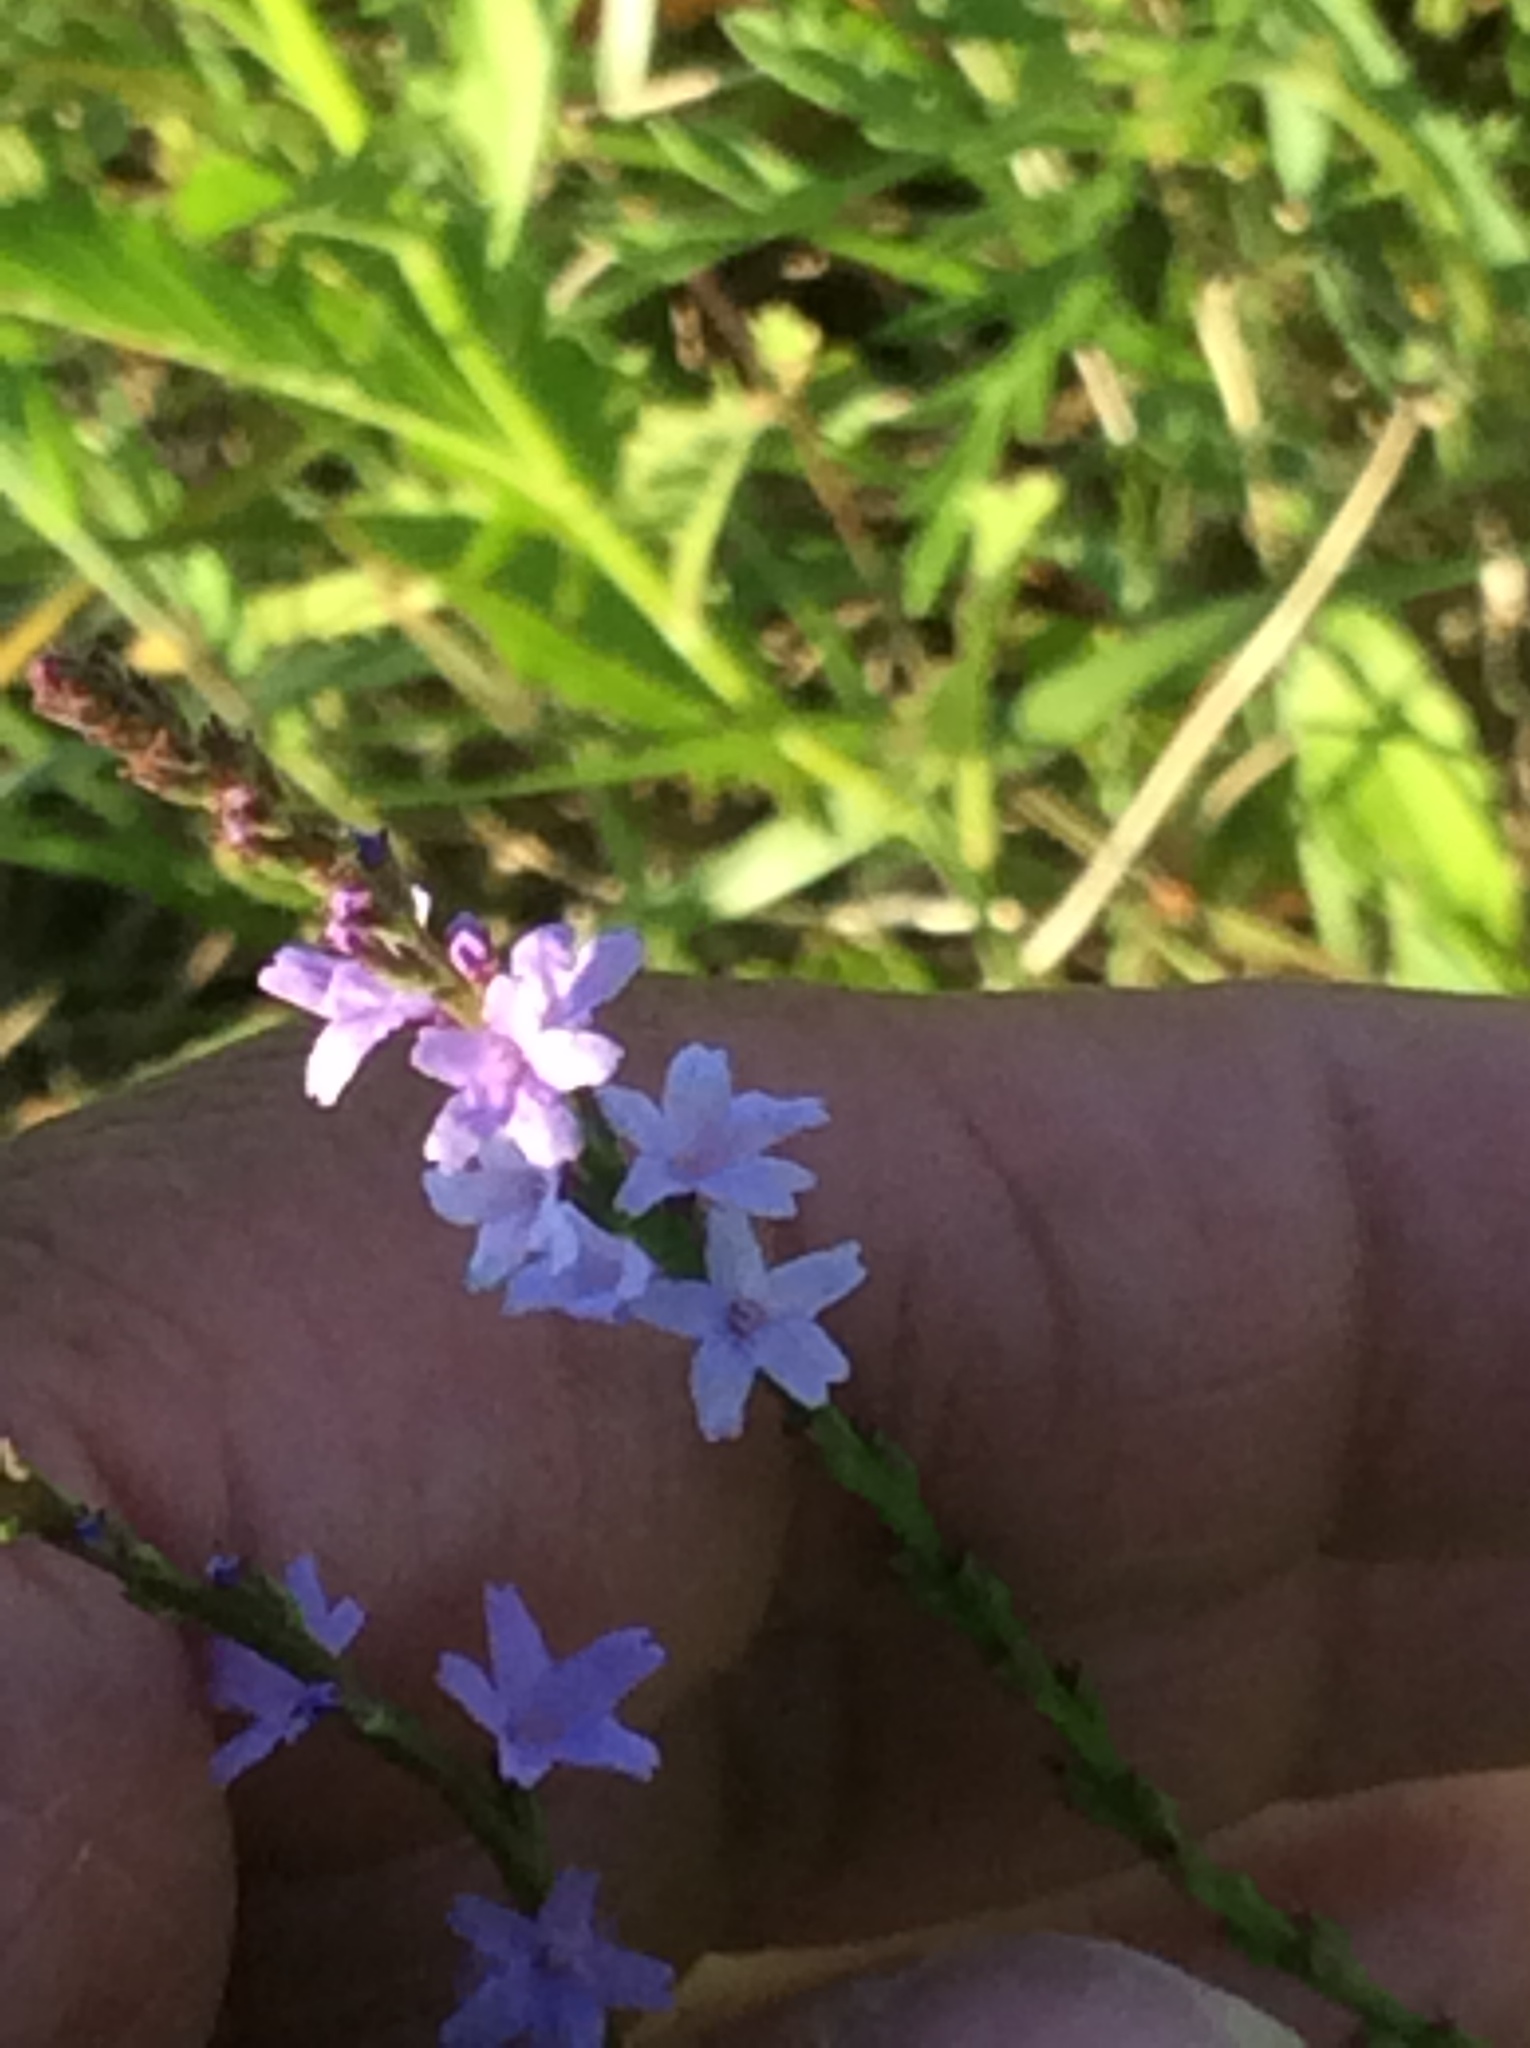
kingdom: Plantae
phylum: Tracheophyta
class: Magnoliopsida
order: Lamiales
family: Verbenaceae
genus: Verbena
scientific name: Verbena halei
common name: Texas vervain
